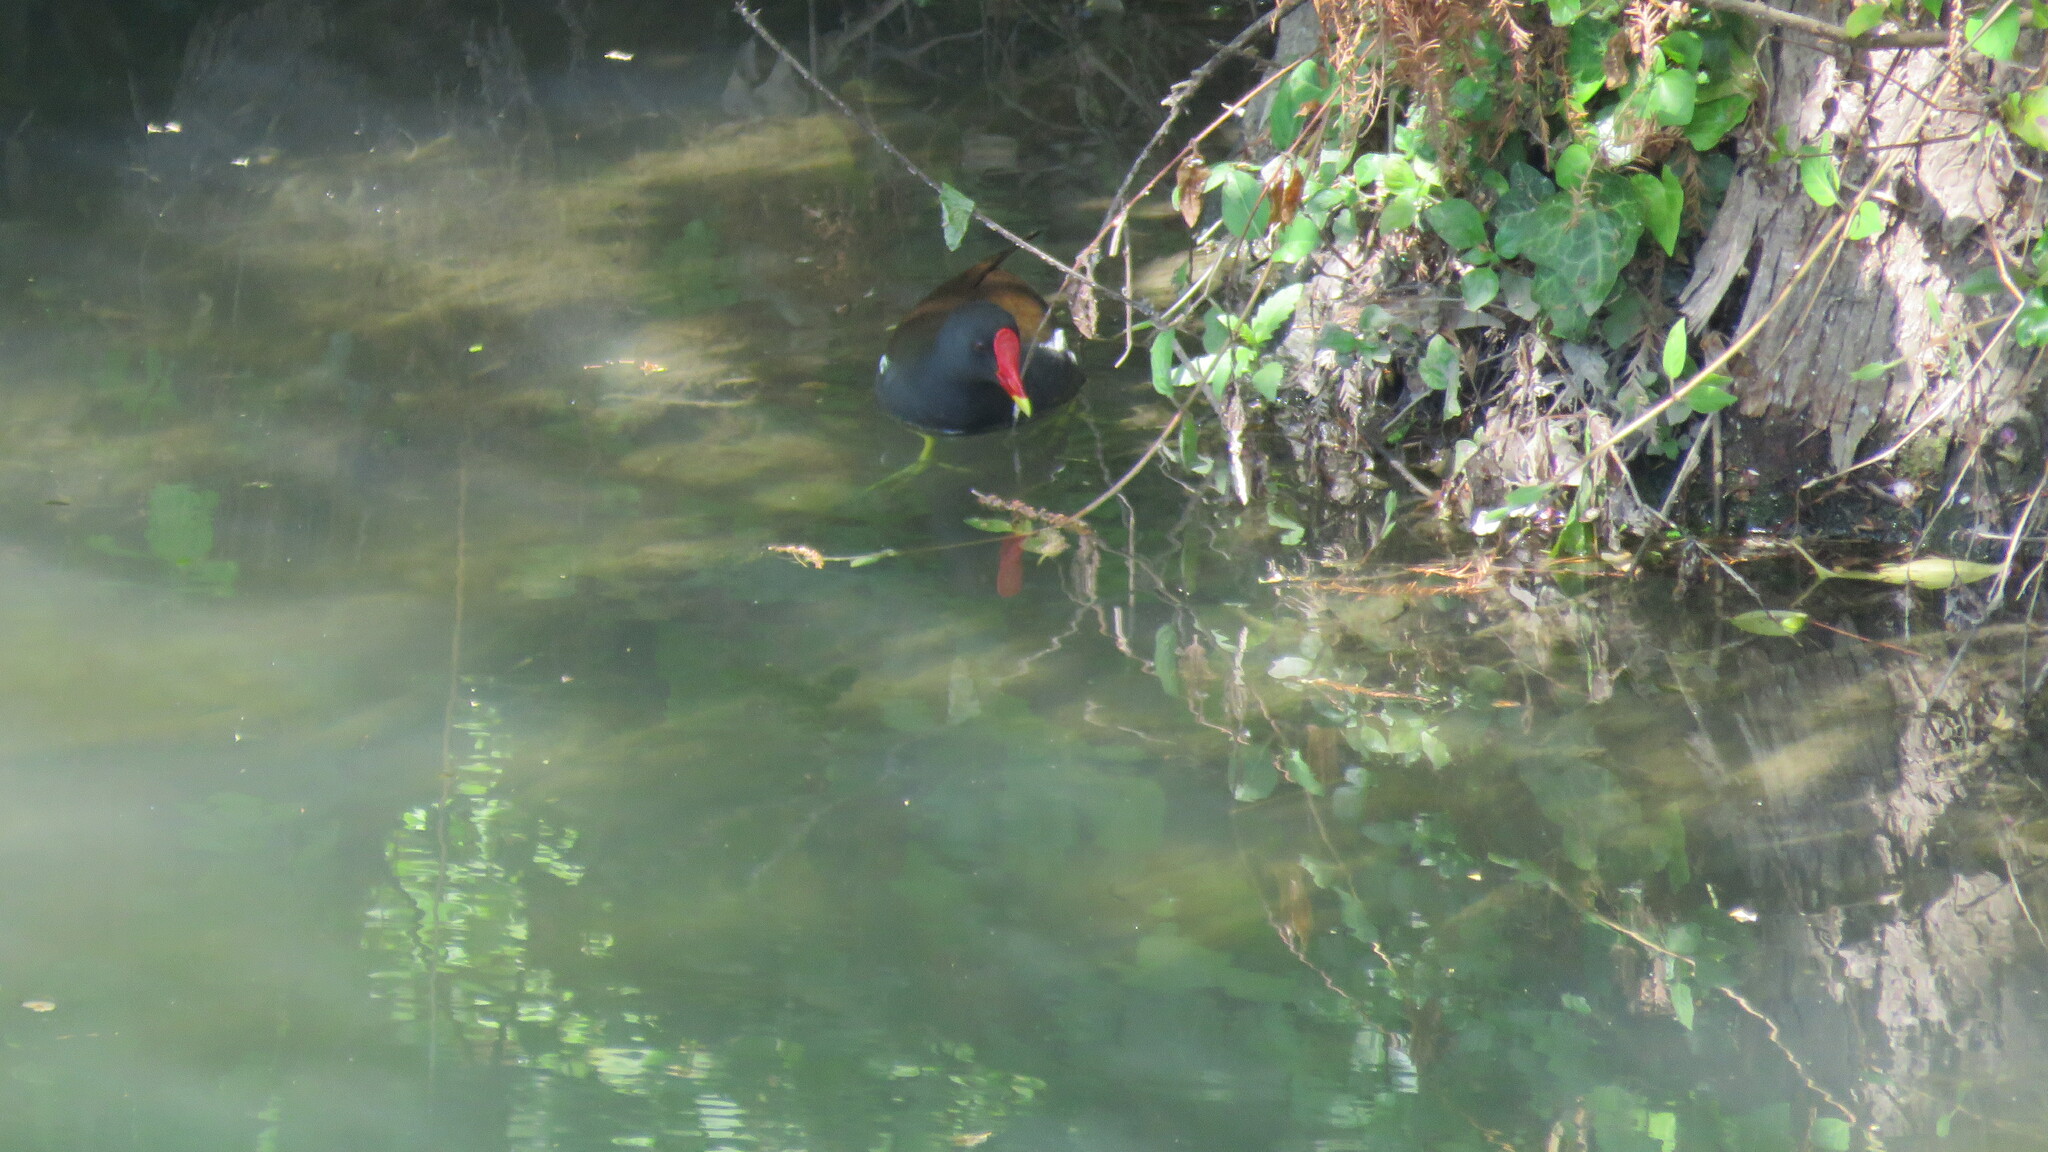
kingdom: Animalia
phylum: Chordata
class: Aves
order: Gruiformes
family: Rallidae
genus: Gallinula
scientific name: Gallinula chloropus
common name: Common moorhen
